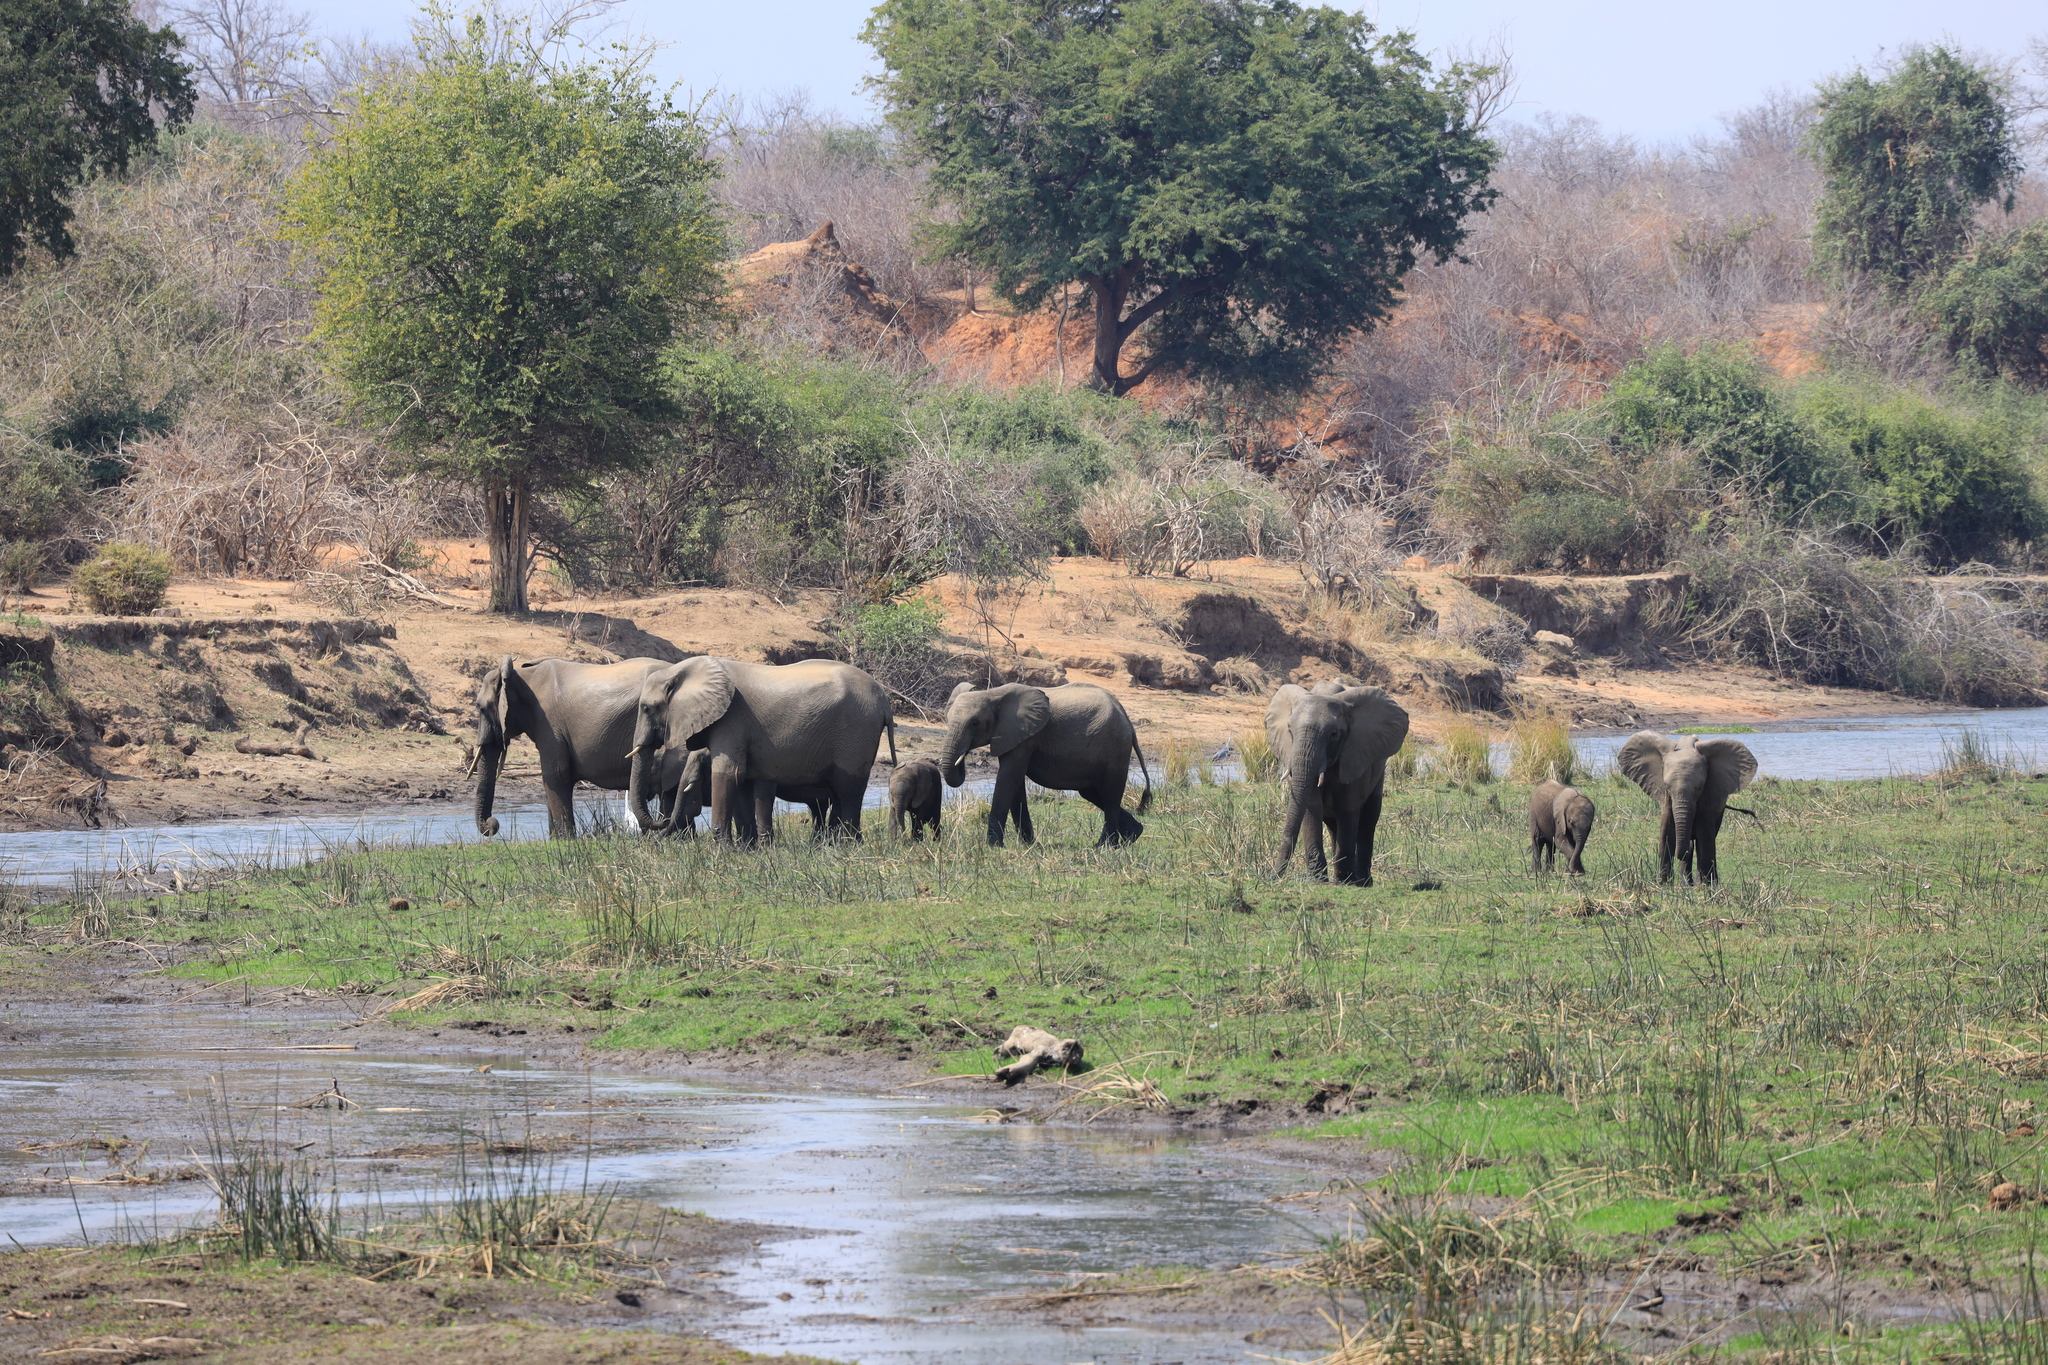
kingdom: Animalia
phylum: Chordata
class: Mammalia
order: Proboscidea
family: Elephantidae
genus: Loxodonta
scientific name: Loxodonta africana
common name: African elephant
